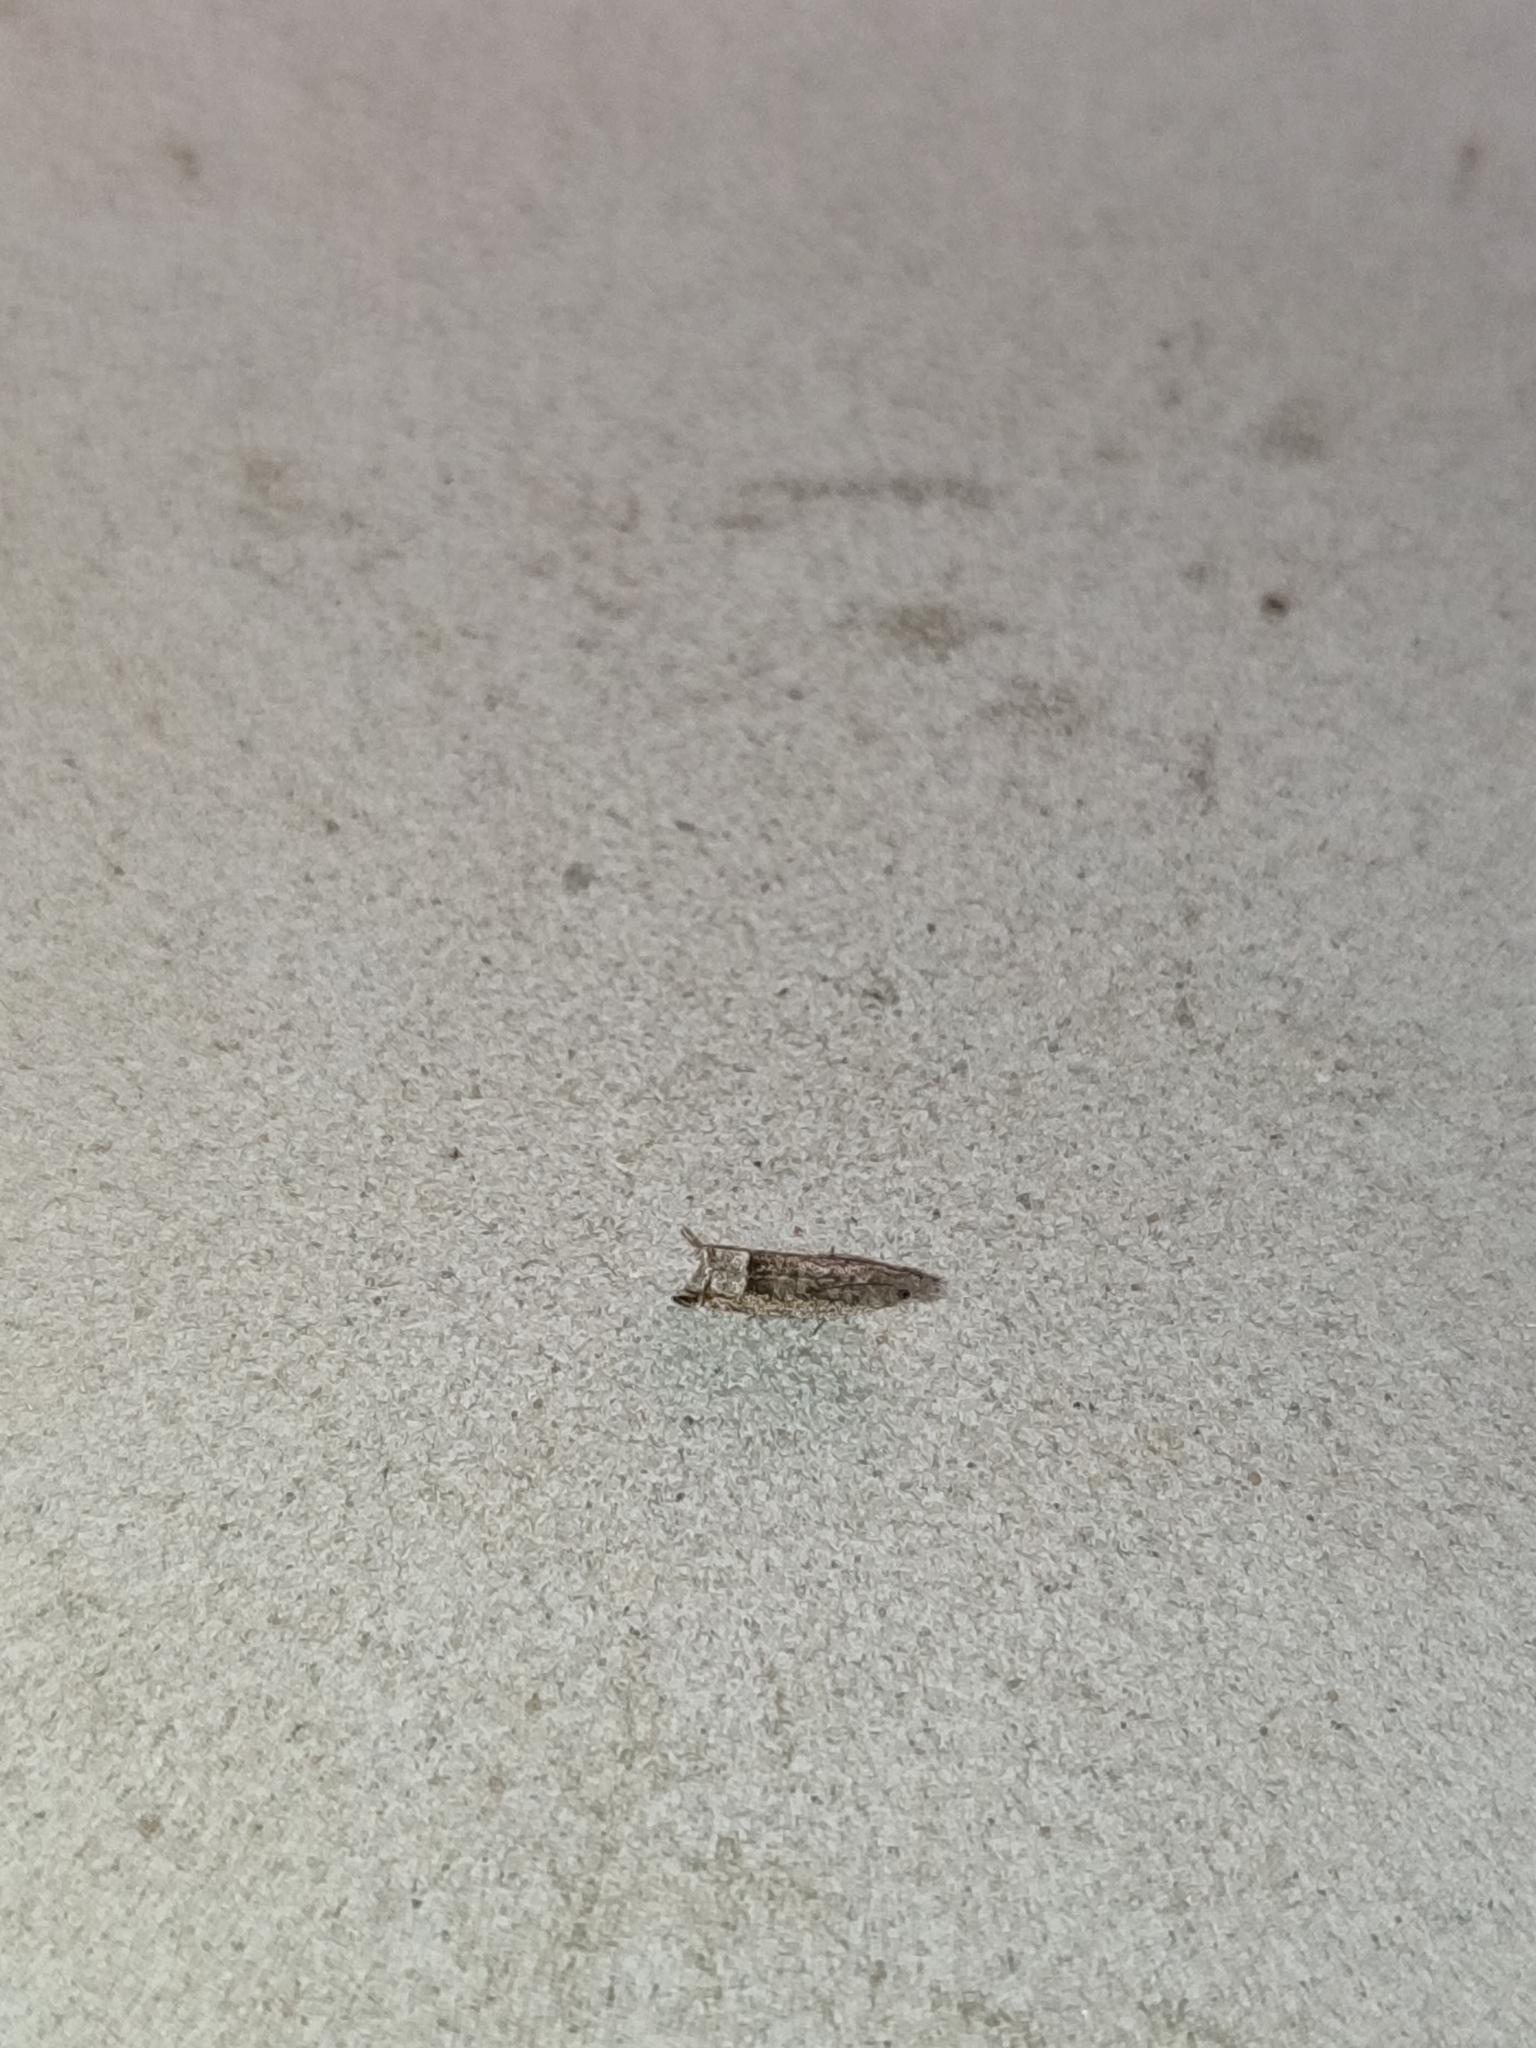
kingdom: Animalia
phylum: Arthropoda
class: Insecta
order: Lepidoptera
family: Tortricidae
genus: Ancylis
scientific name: Ancylis tineana
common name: Rannoch roller
